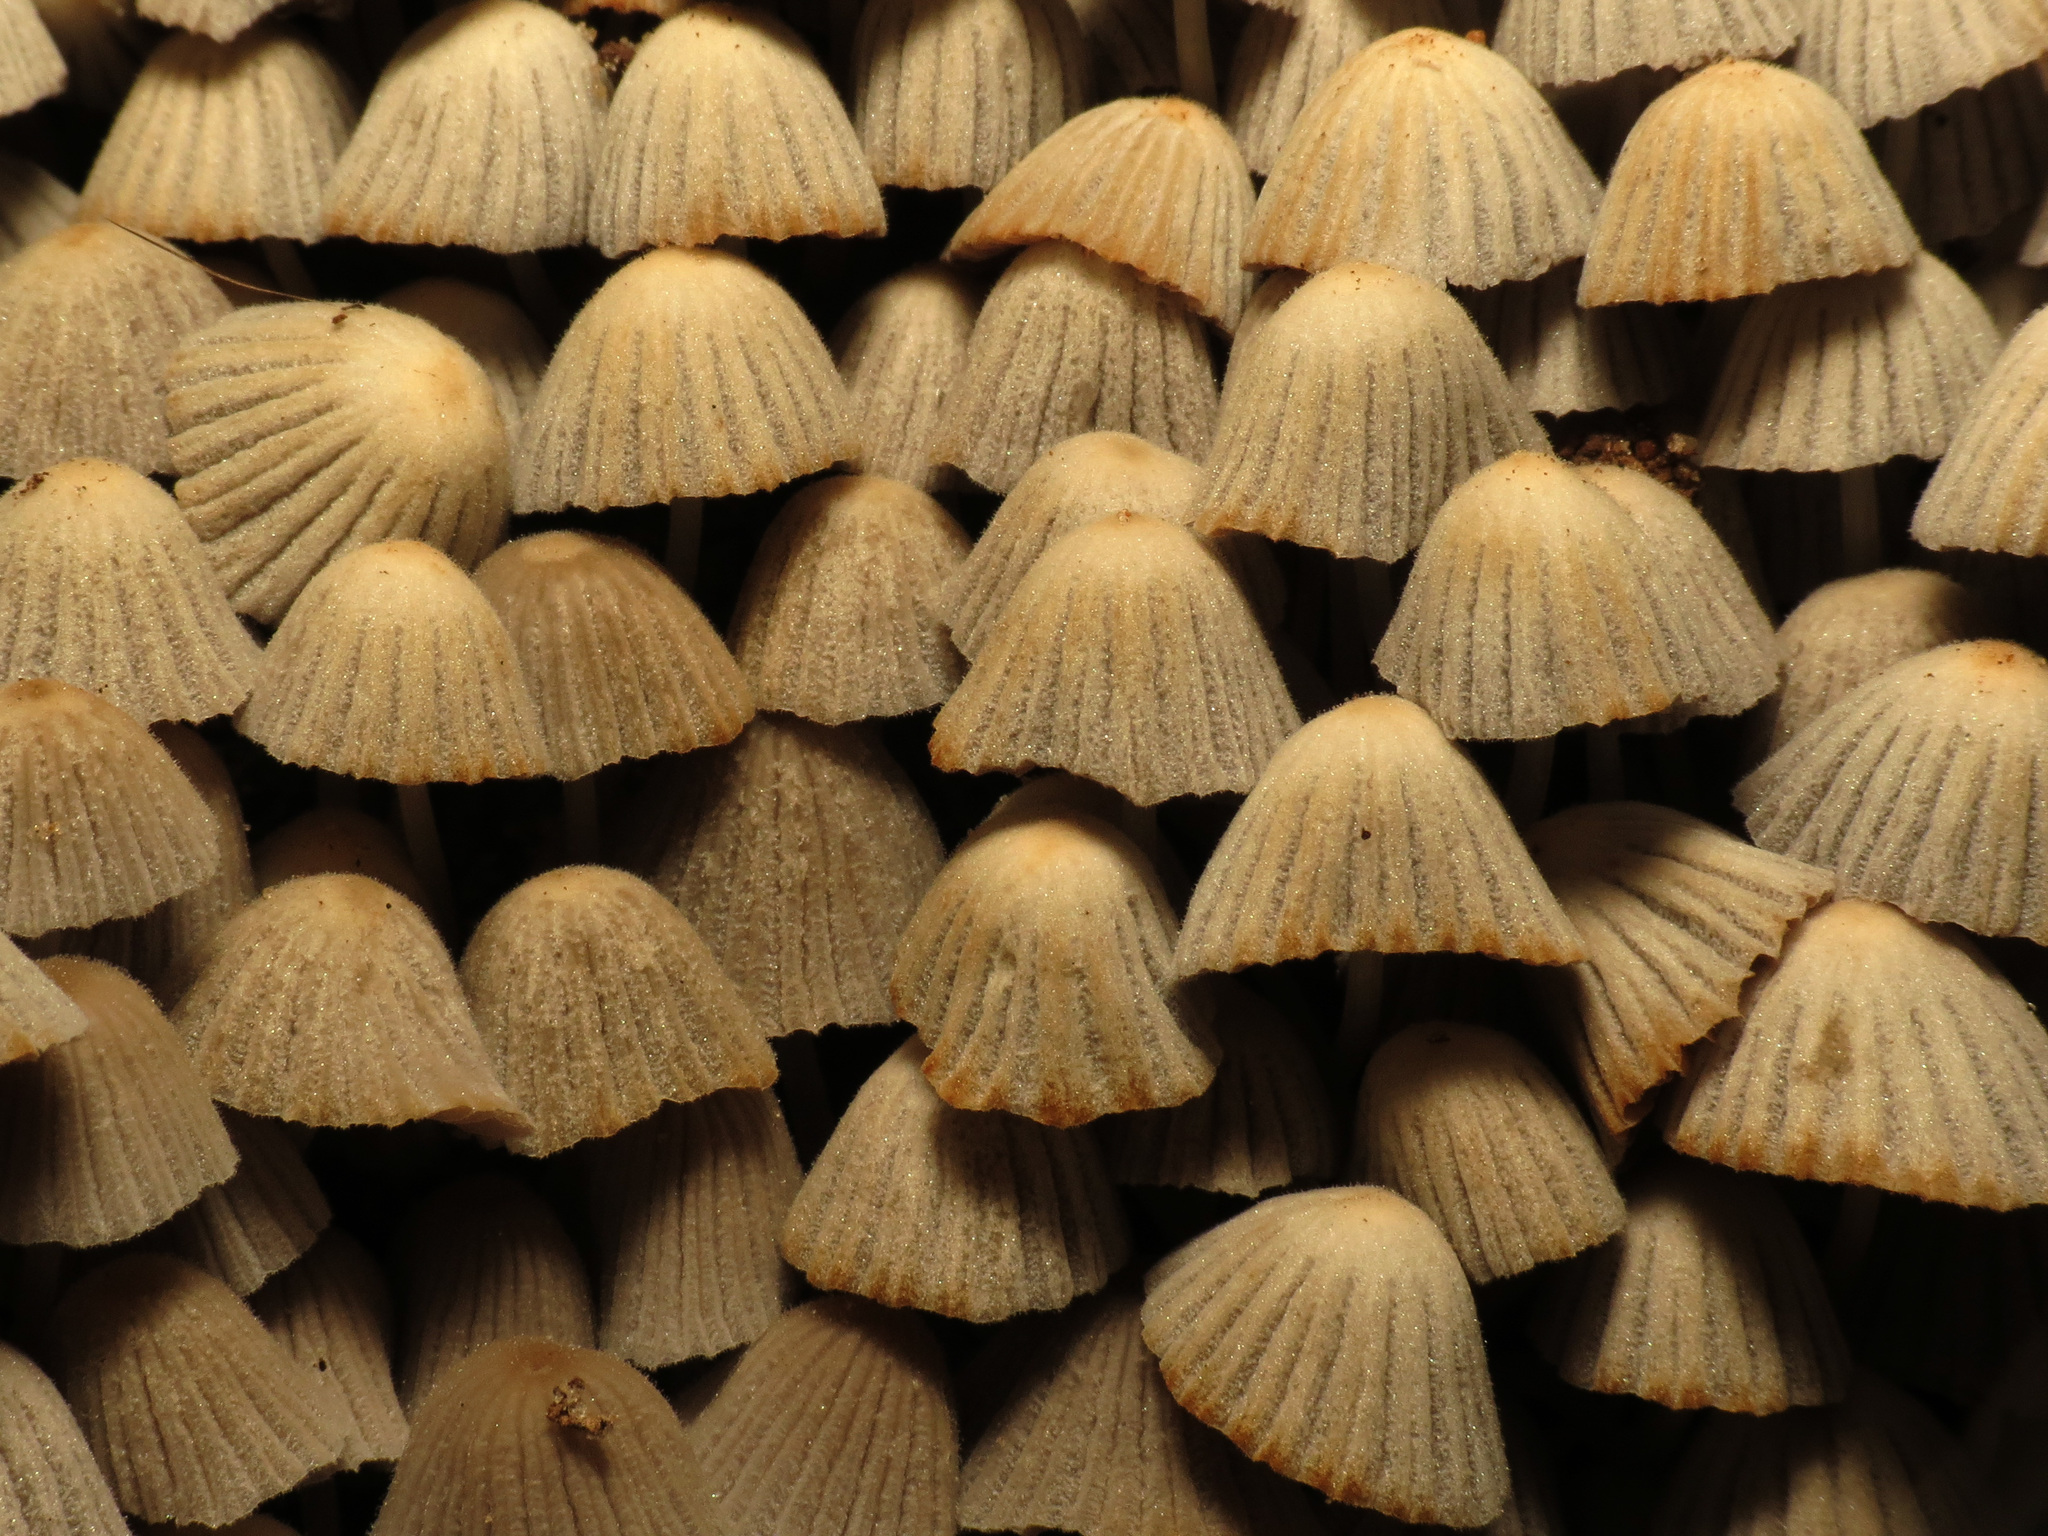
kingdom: Fungi
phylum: Basidiomycota
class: Agaricomycetes
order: Agaricales
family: Psathyrellaceae
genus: Coprinellus
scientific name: Coprinellus disseminatus
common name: Fairies' bonnets
